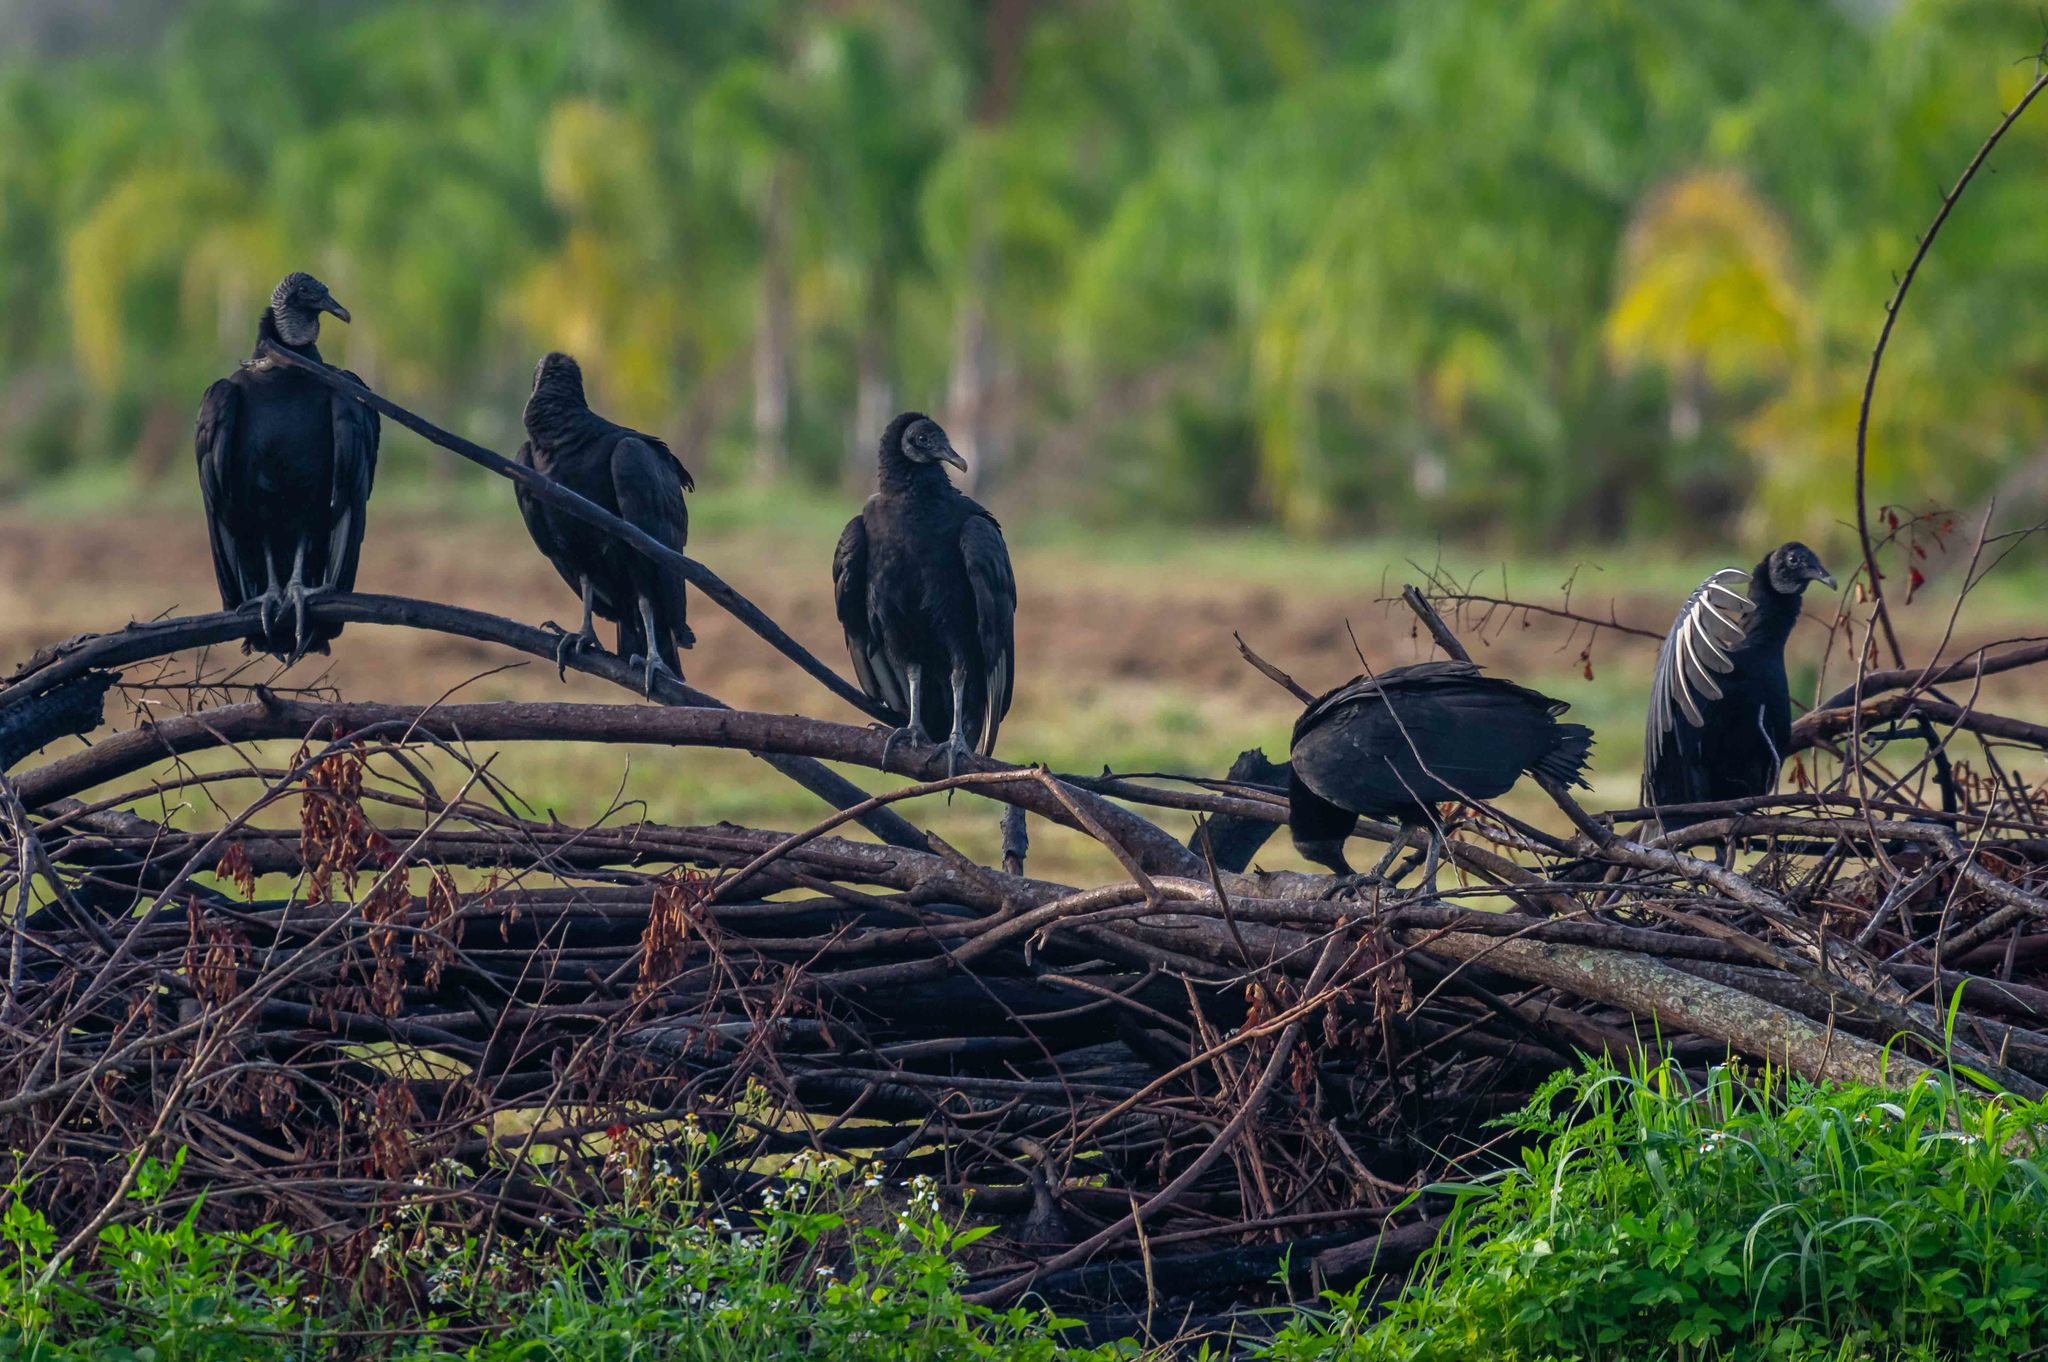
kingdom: Animalia
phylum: Chordata
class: Aves
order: Accipitriformes
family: Cathartidae
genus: Coragyps
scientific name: Coragyps atratus
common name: Black vulture
